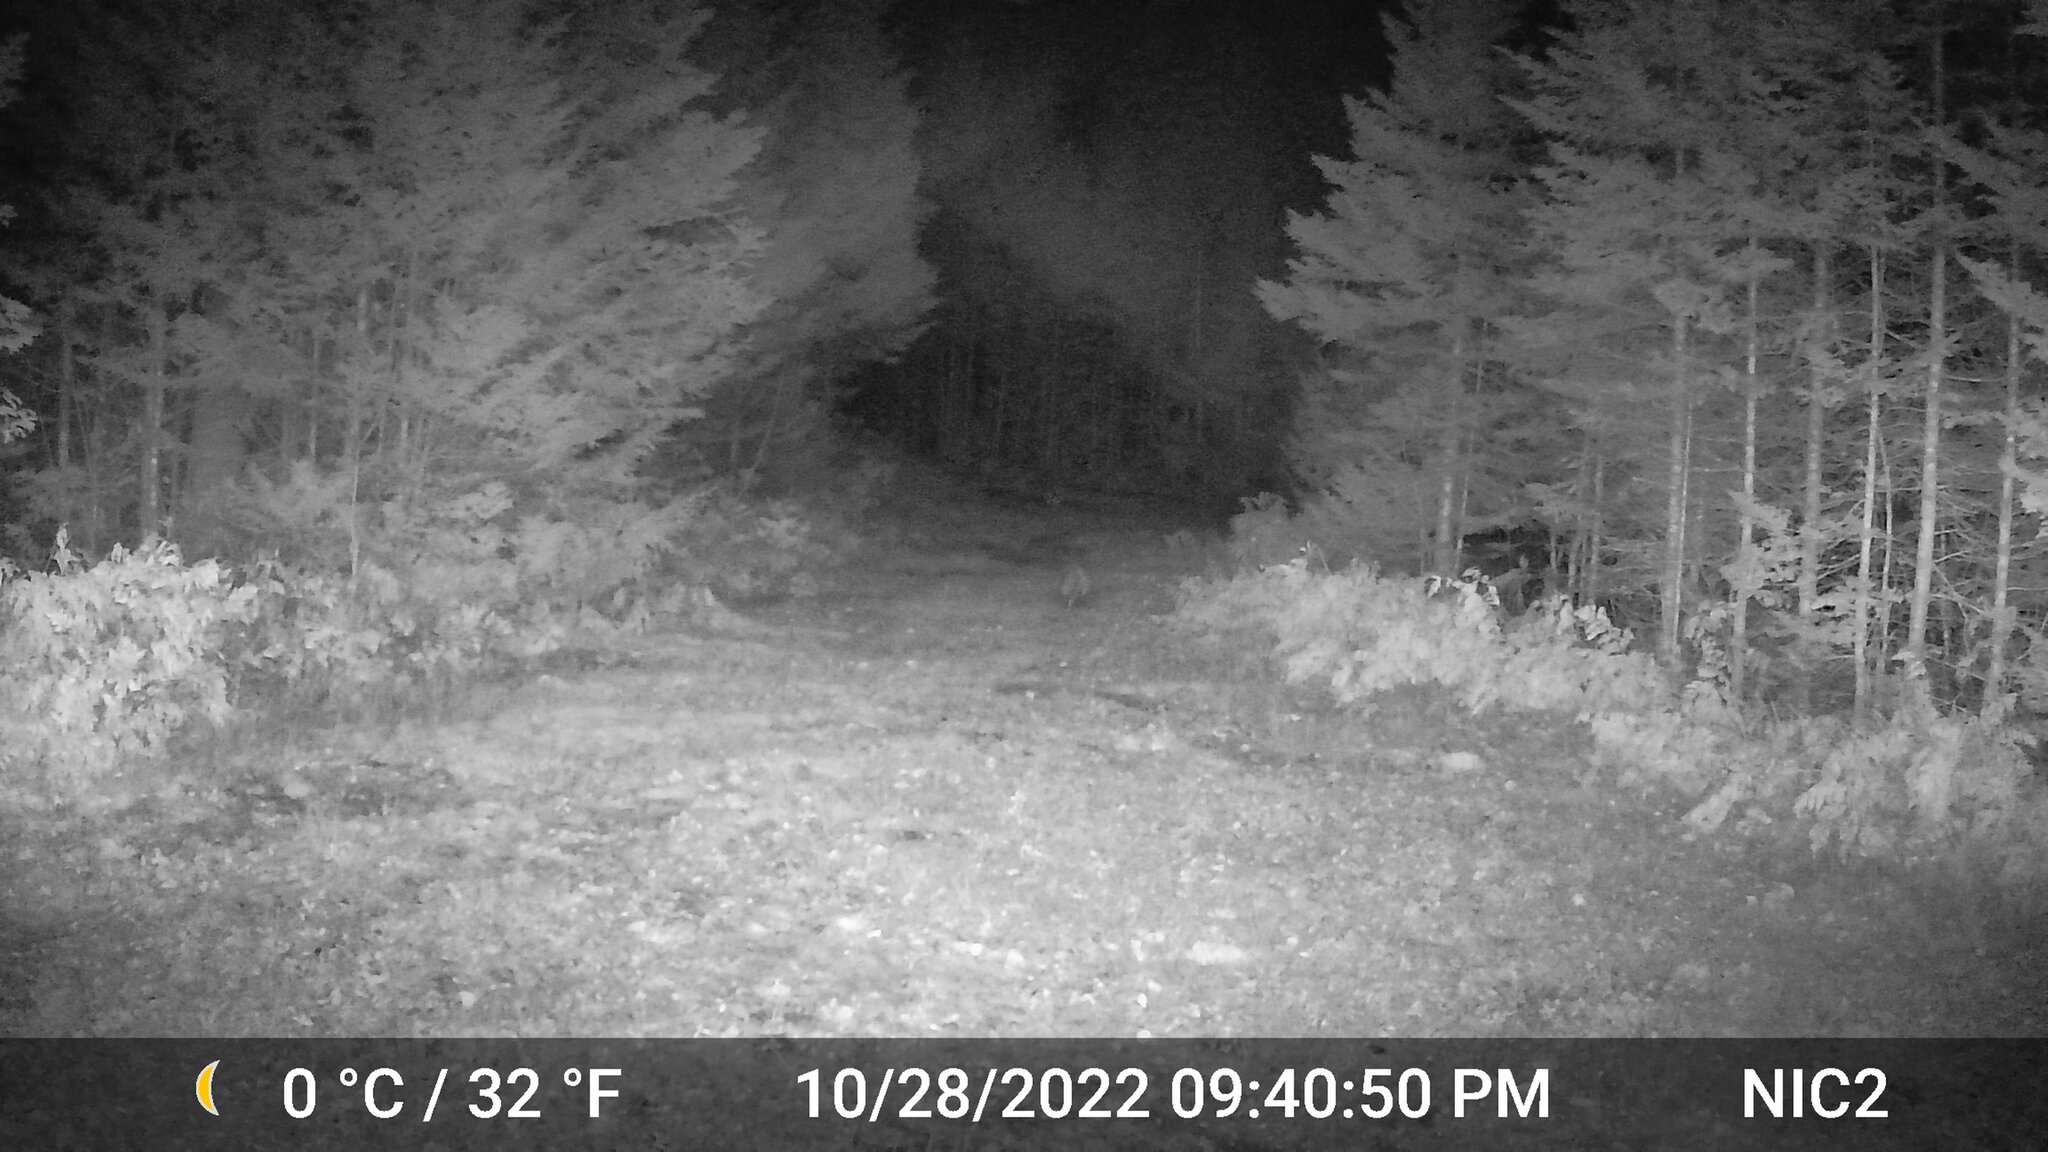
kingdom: Animalia
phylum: Chordata
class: Mammalia
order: Carnivora
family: Canidae
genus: Vulpes
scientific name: Vulpes vulpes
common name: Red fox
